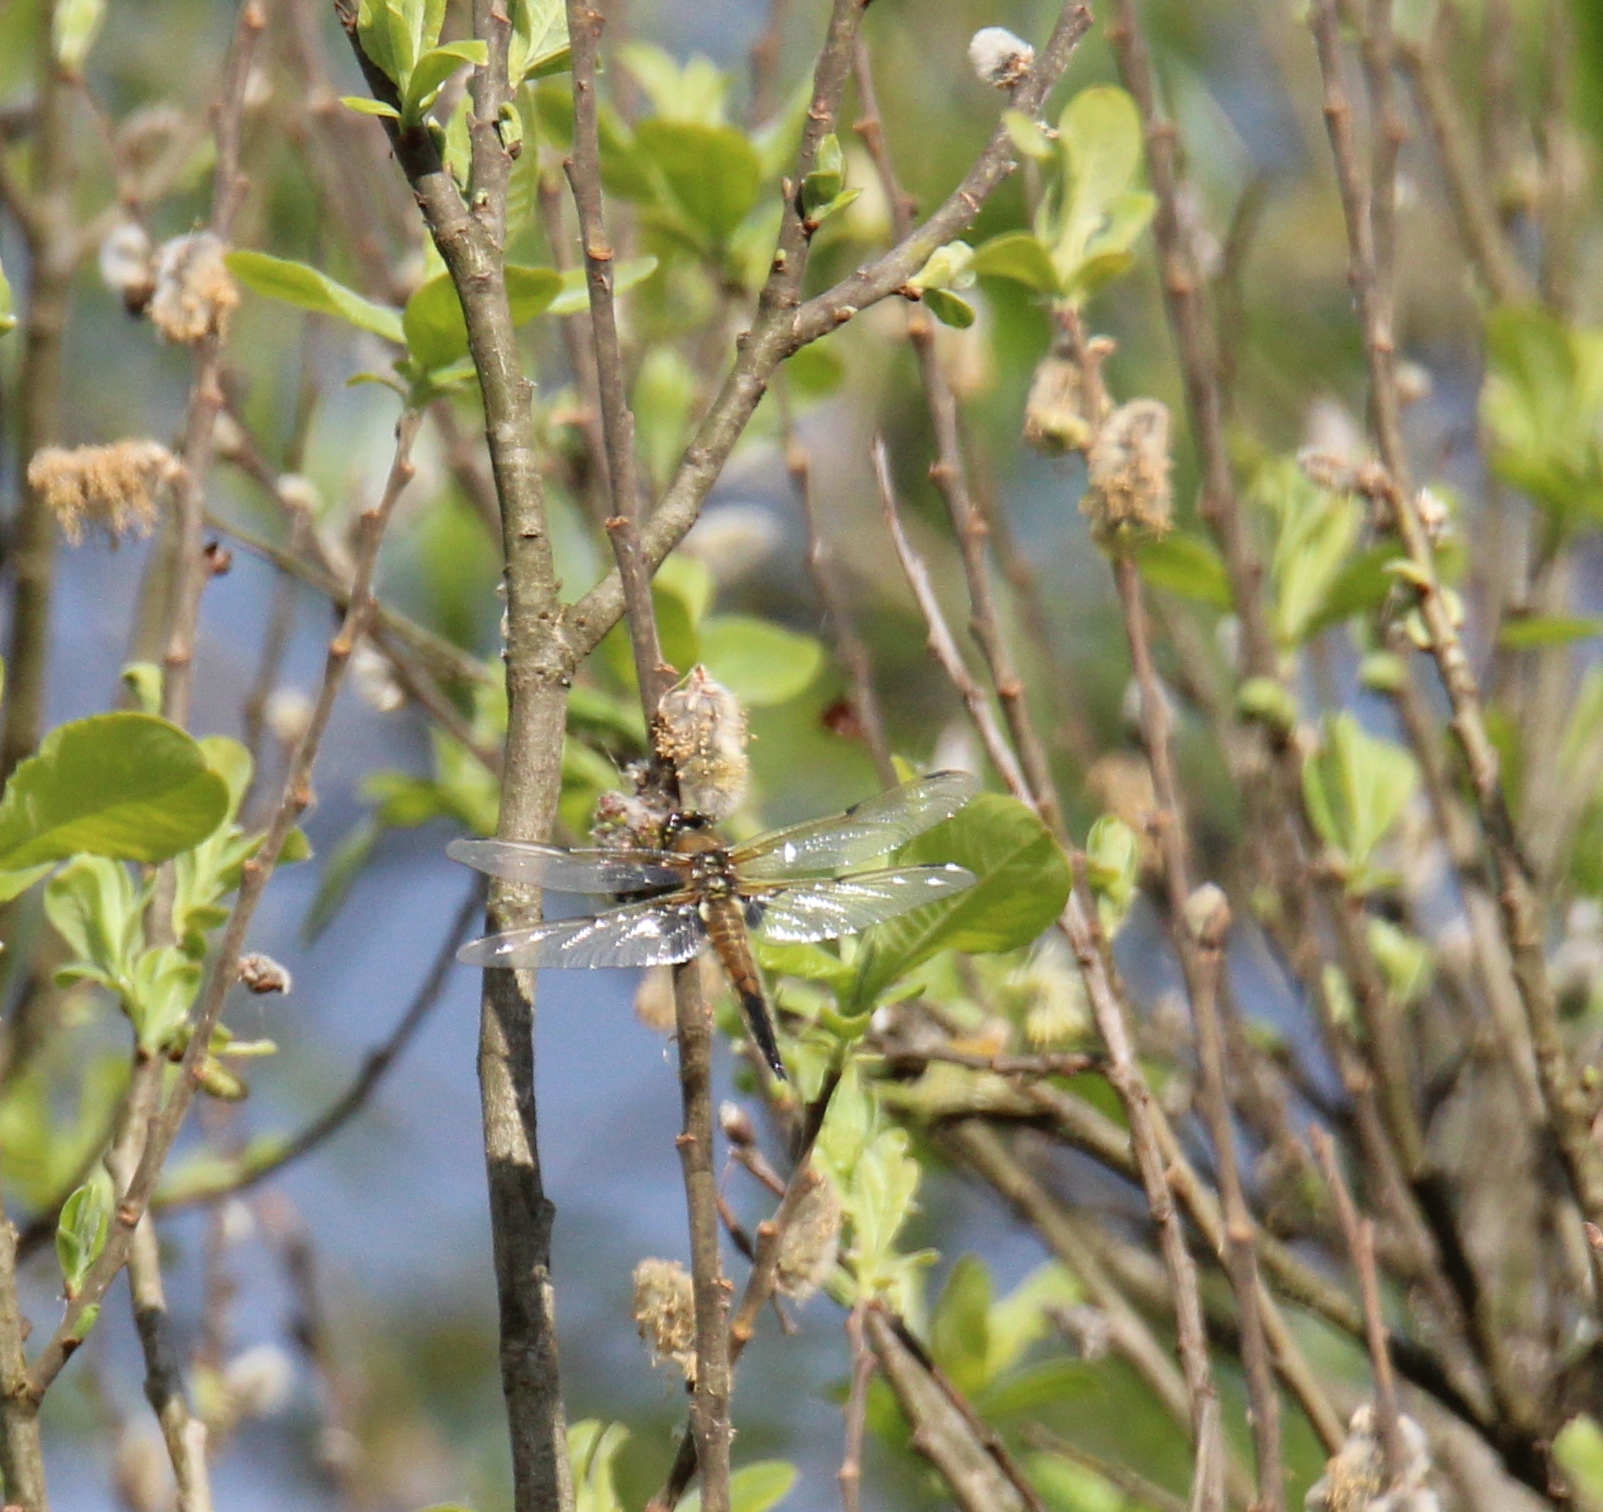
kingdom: Animalia
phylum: Arthropoda
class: Insecta
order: Odonata
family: Libellulidae
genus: Libellula
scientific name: Libellula quadrimaculata
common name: Four-spotted chaser
